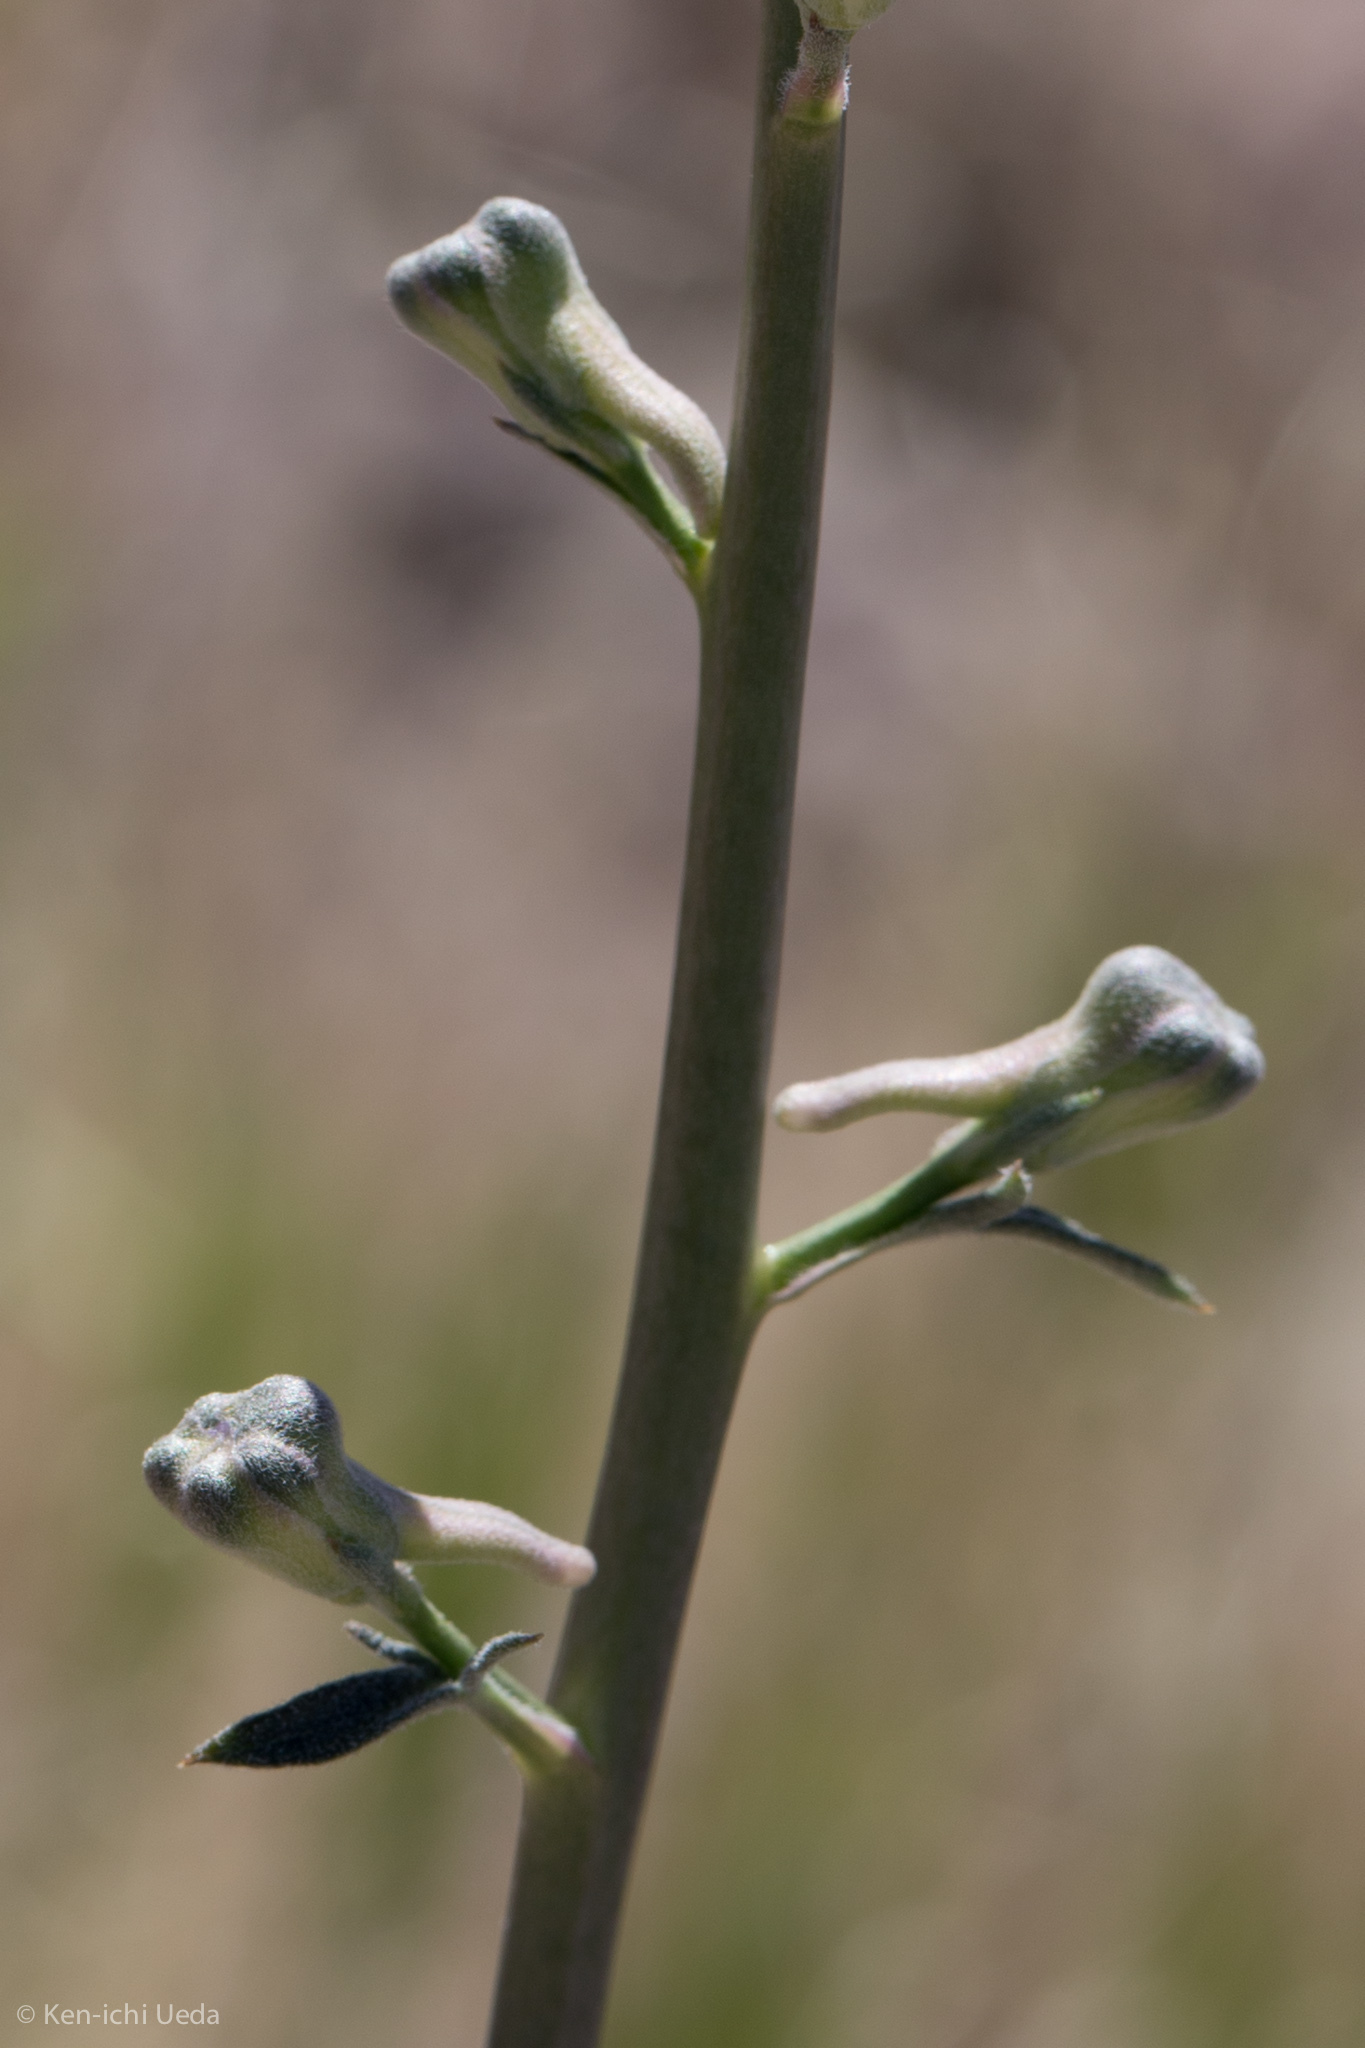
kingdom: Plantae
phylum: Tracheophyta
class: Magnoliopsida
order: Ranunculales
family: Ranunculaceae
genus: Delphinium
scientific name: Delphinium parishii
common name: Apache larkspur
